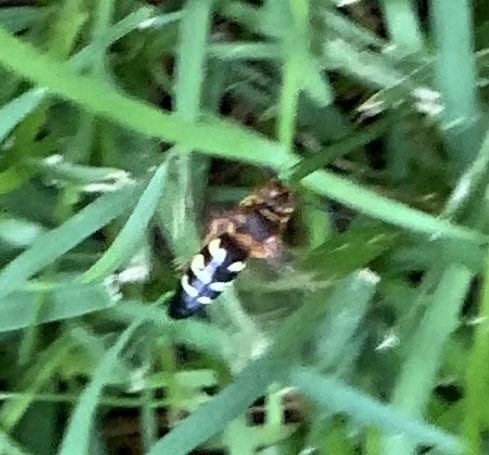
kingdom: Animalia
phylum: Arthropoda
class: Insecta
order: Hymenoptera
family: Crabronidae
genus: Sphecius
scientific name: Sphecius speciosus
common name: Cicada killer
